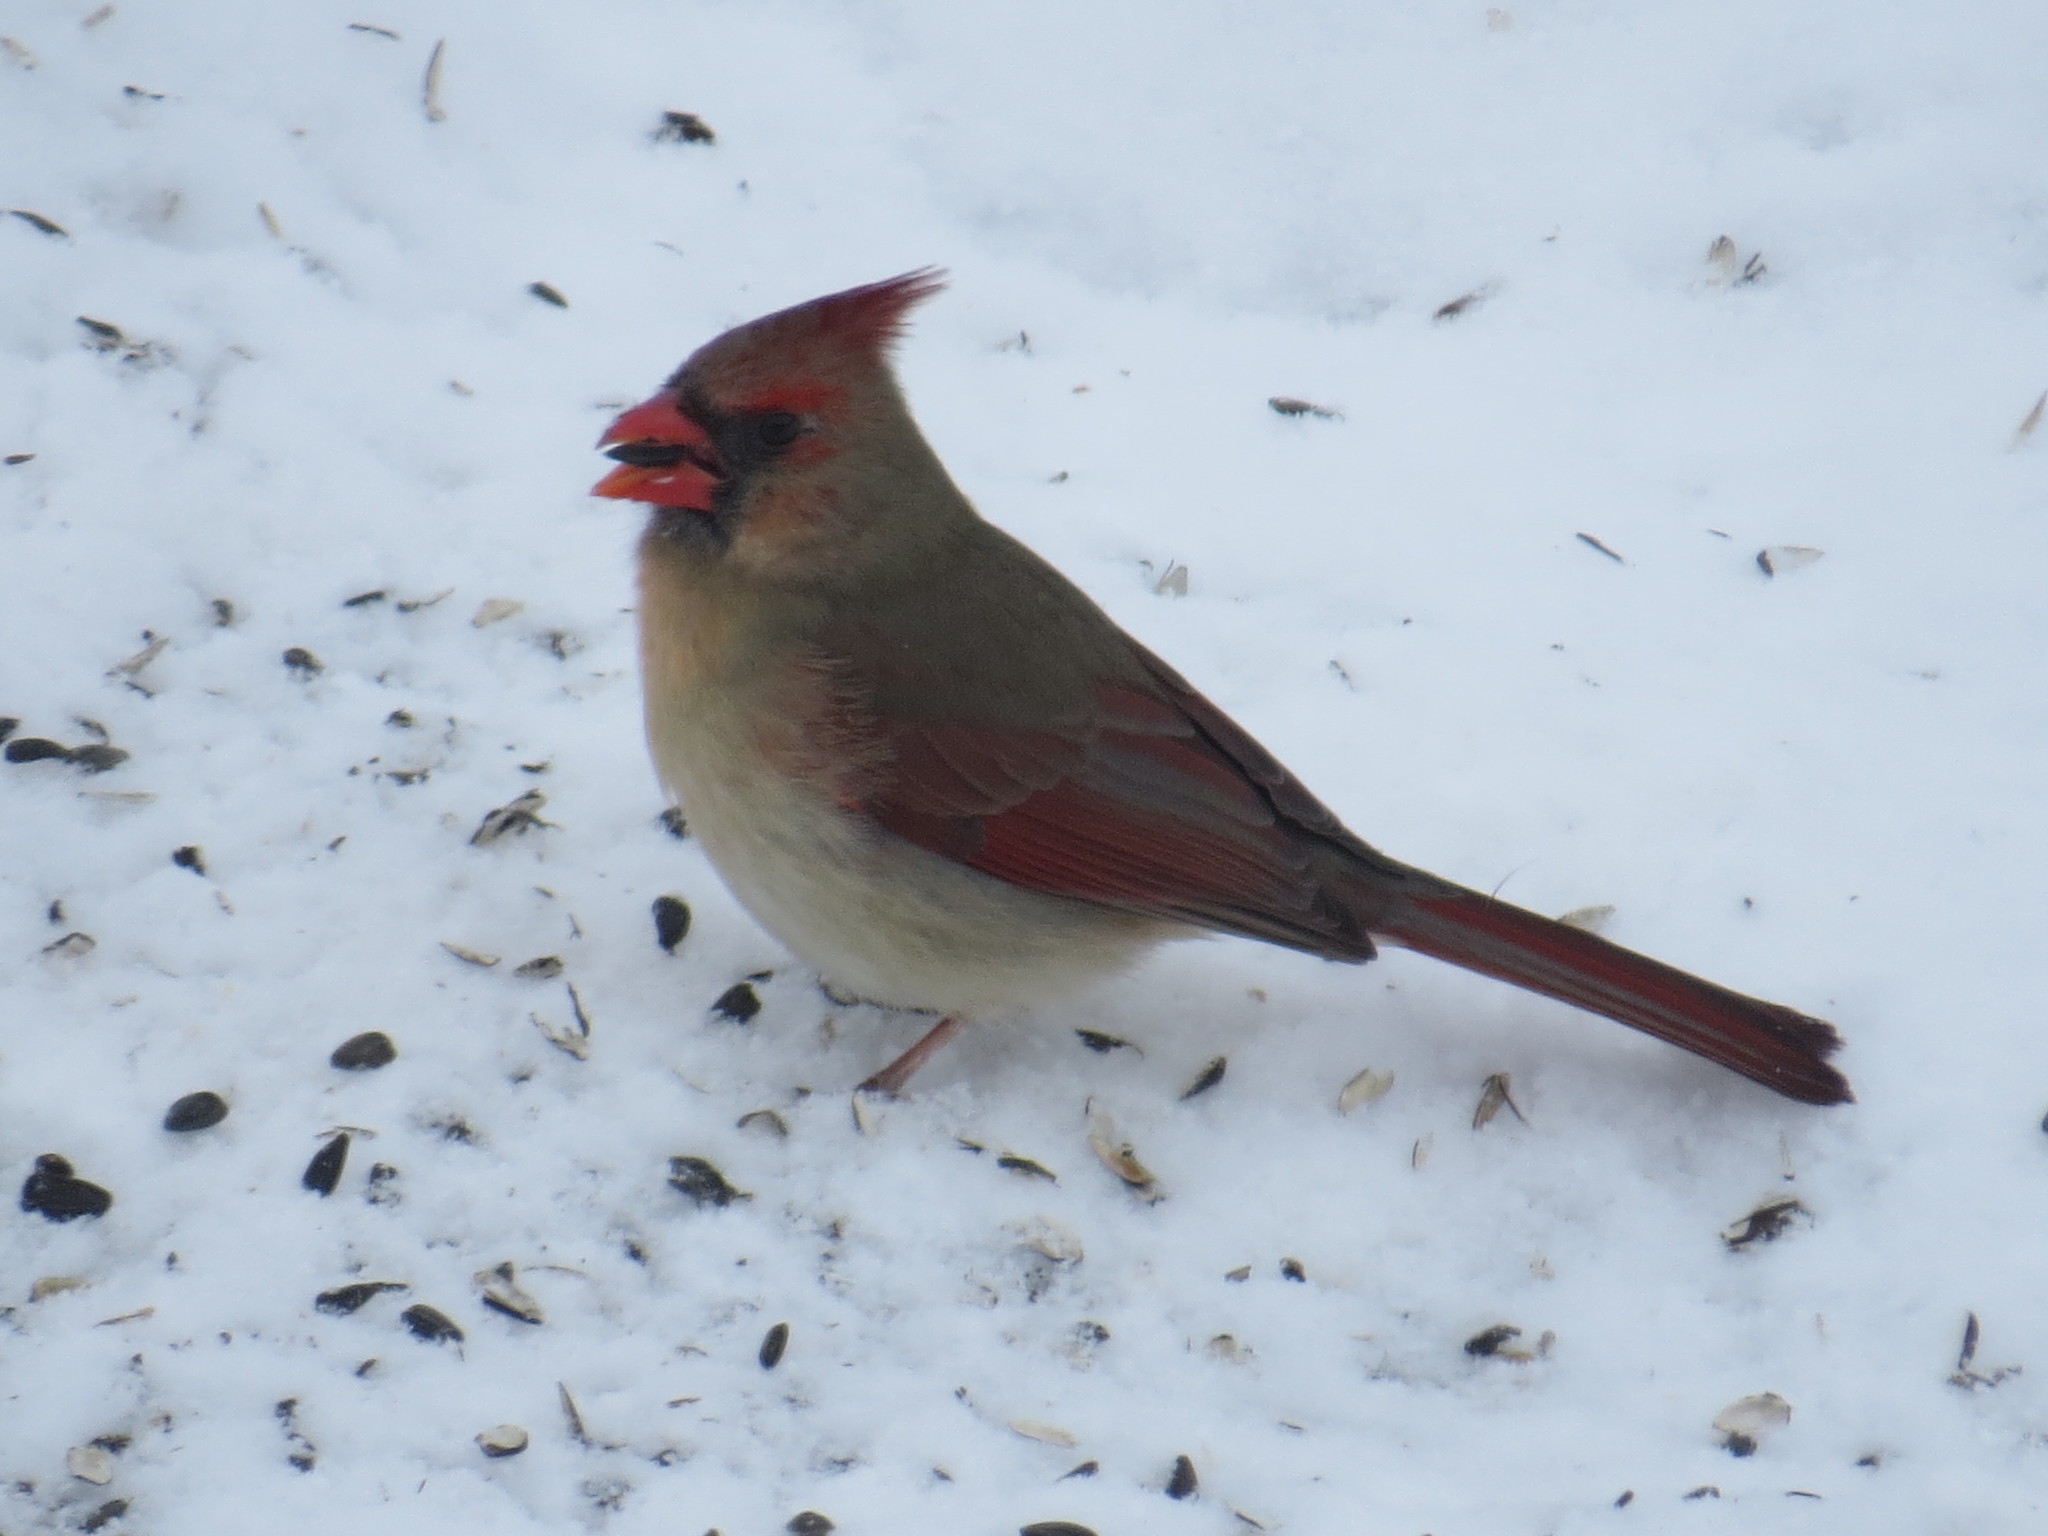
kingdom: Animalia
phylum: Chordata
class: Aves
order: Passeriformes
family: Cardinalidae
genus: Cardinalis
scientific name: Cardinalis cardinalis
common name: Northern cardinal
